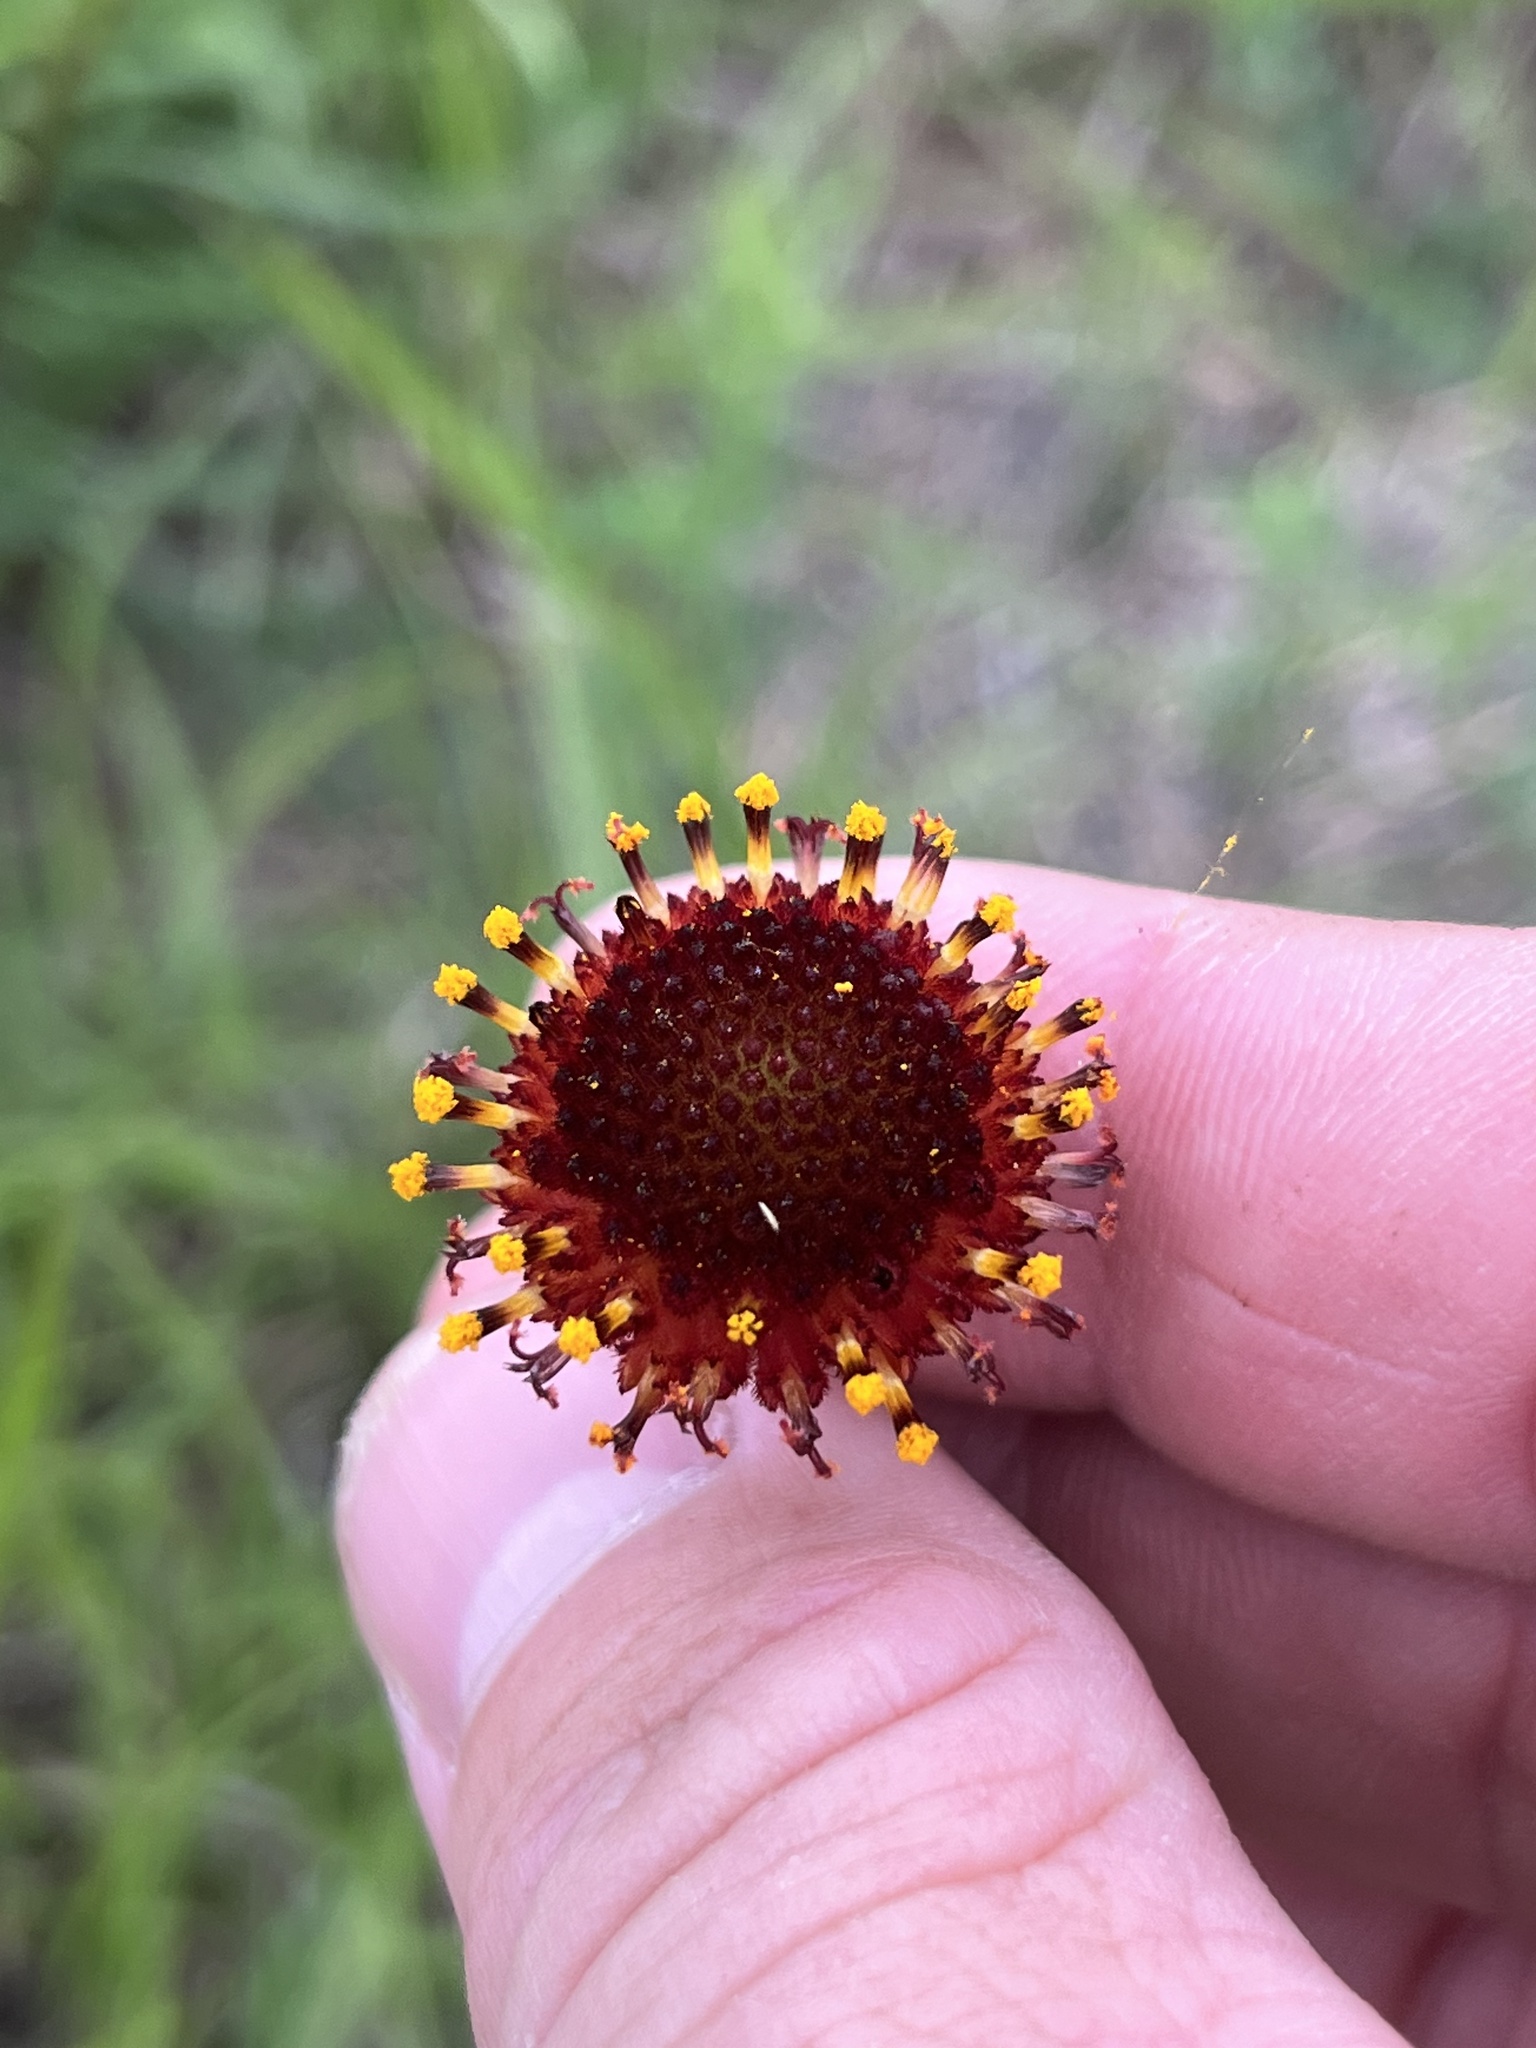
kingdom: Plantae
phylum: Tracheophyta
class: Magnoliopsida
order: Asterales
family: Asteraceae
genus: Gaillardia
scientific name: Gaillardia suavis
